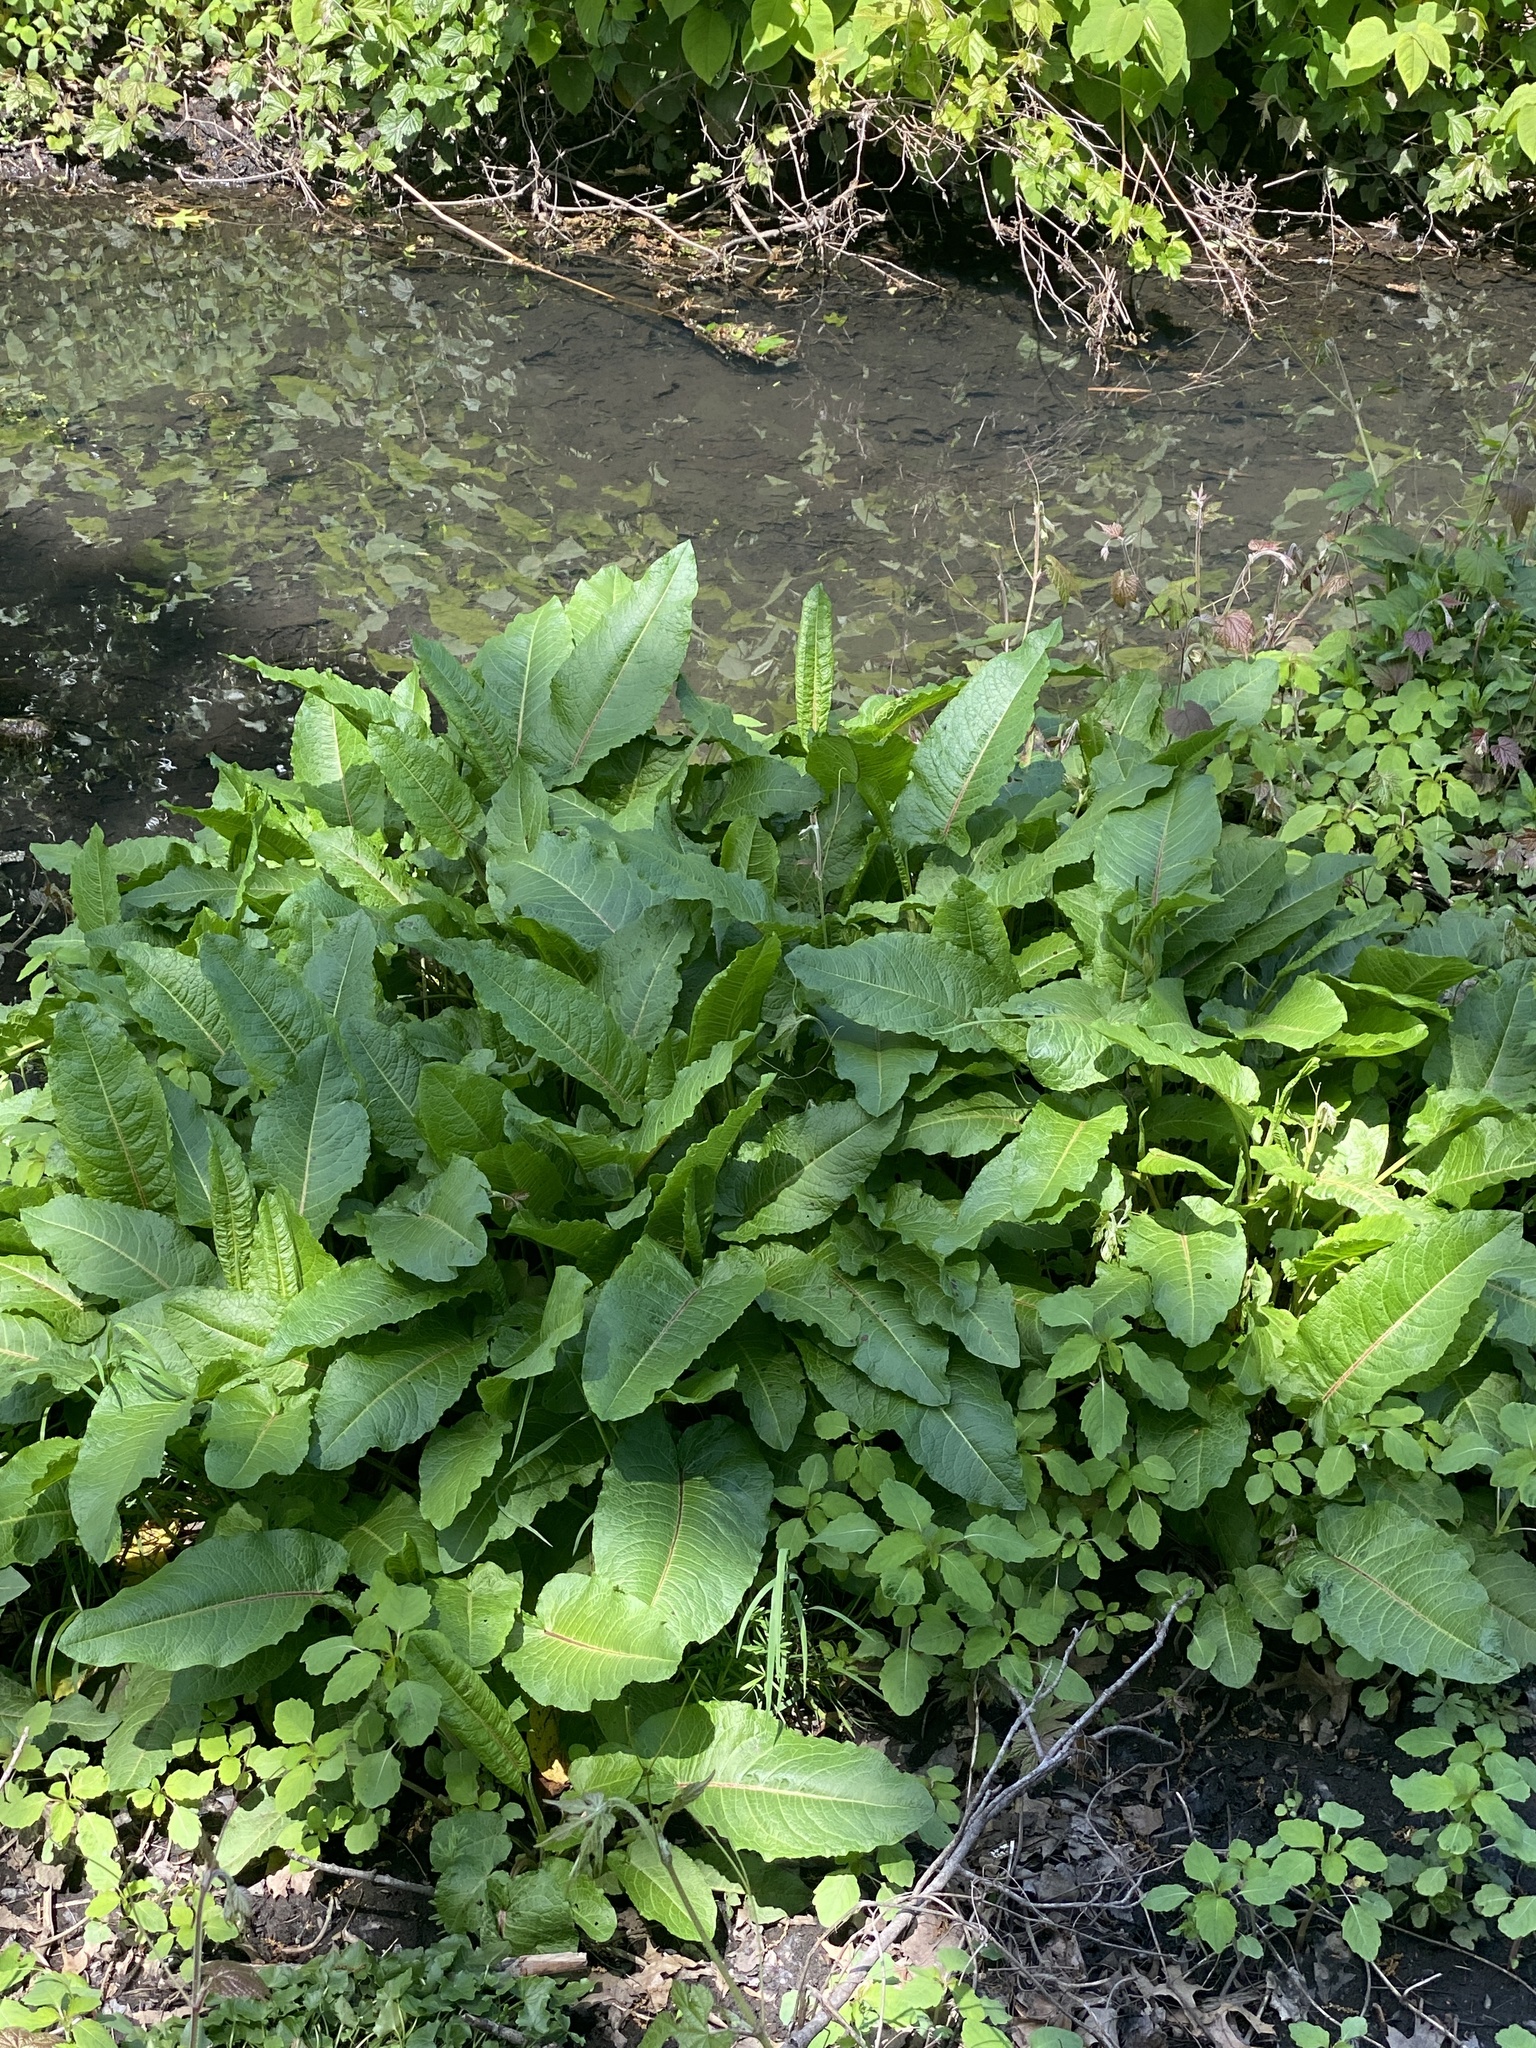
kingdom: Plantae
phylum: Tracheophyta
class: Magnoliopsida
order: Caryophyllales
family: Polygonaceae
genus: Rumex
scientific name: Rumex obtusifolius
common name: Bitter dock
